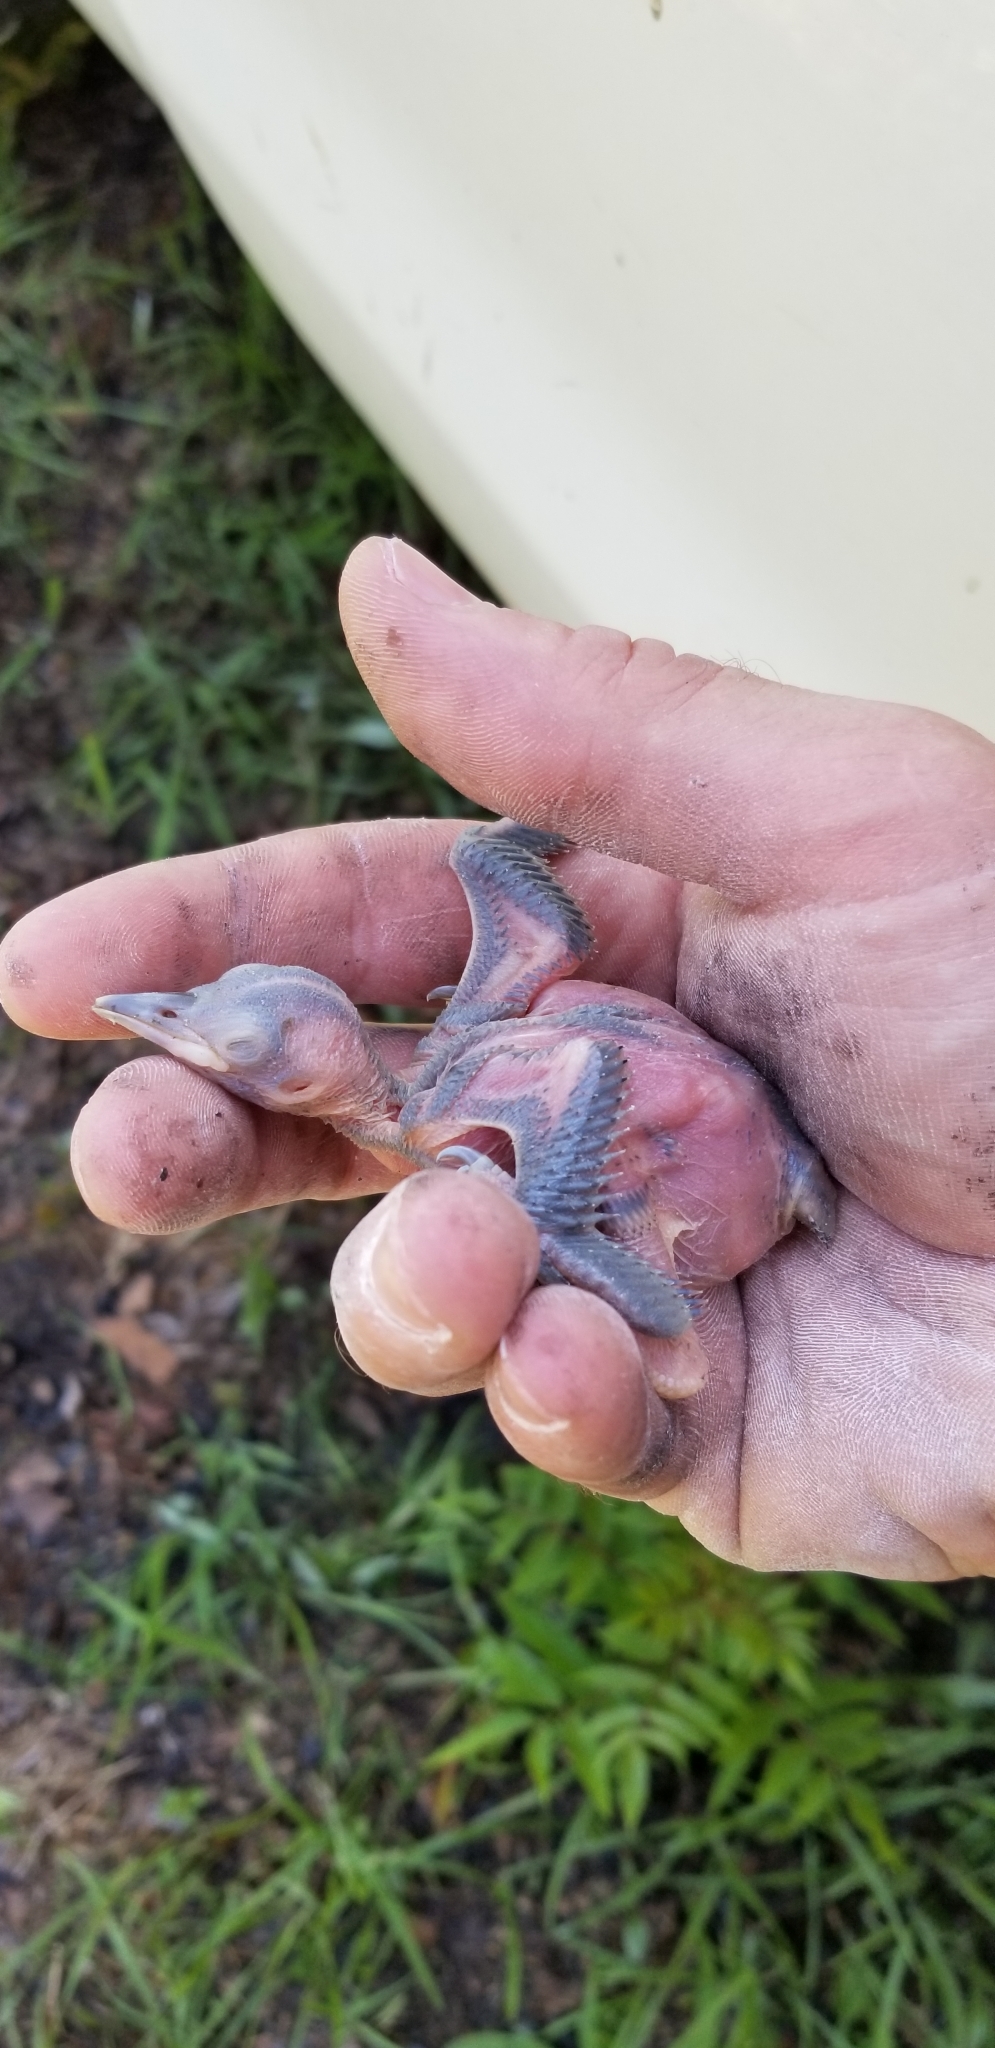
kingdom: Animalia
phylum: Chordata
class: Aves
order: Piciformes
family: Picidae
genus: Leuconotopicus
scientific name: Leuconotopicus borealis
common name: Red-cockaded woodpecker
